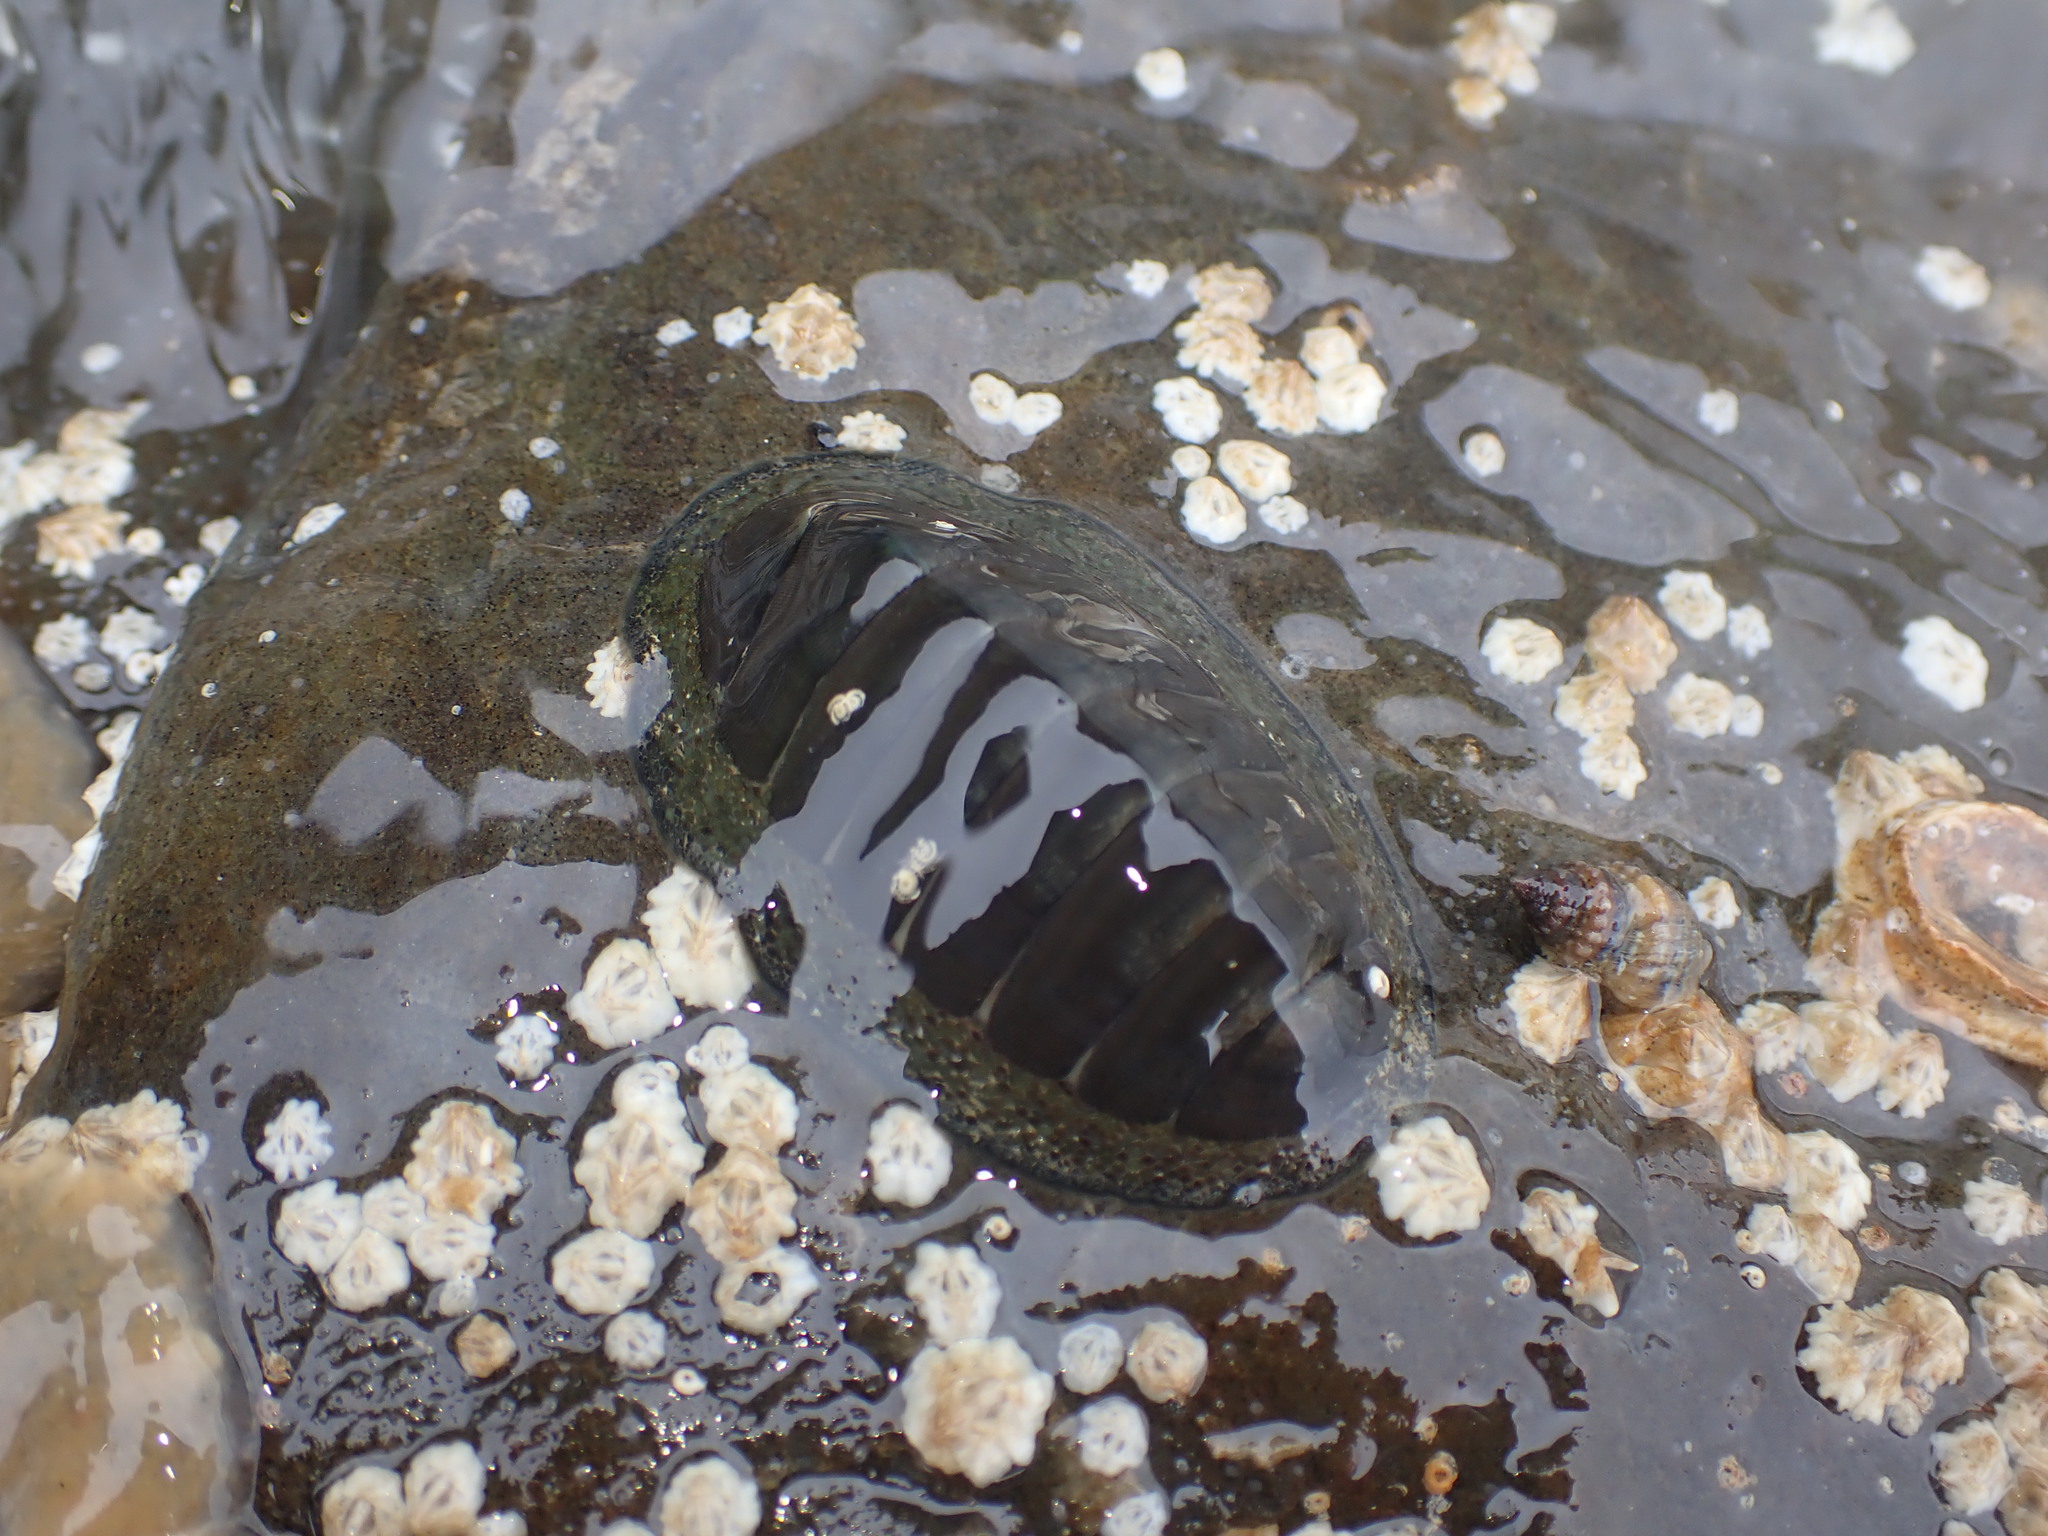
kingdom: Animalia
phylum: Mollusca
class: Polyplacophora
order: Chitonida
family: Chitonidae
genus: Chiton
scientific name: Chiton glaucus
